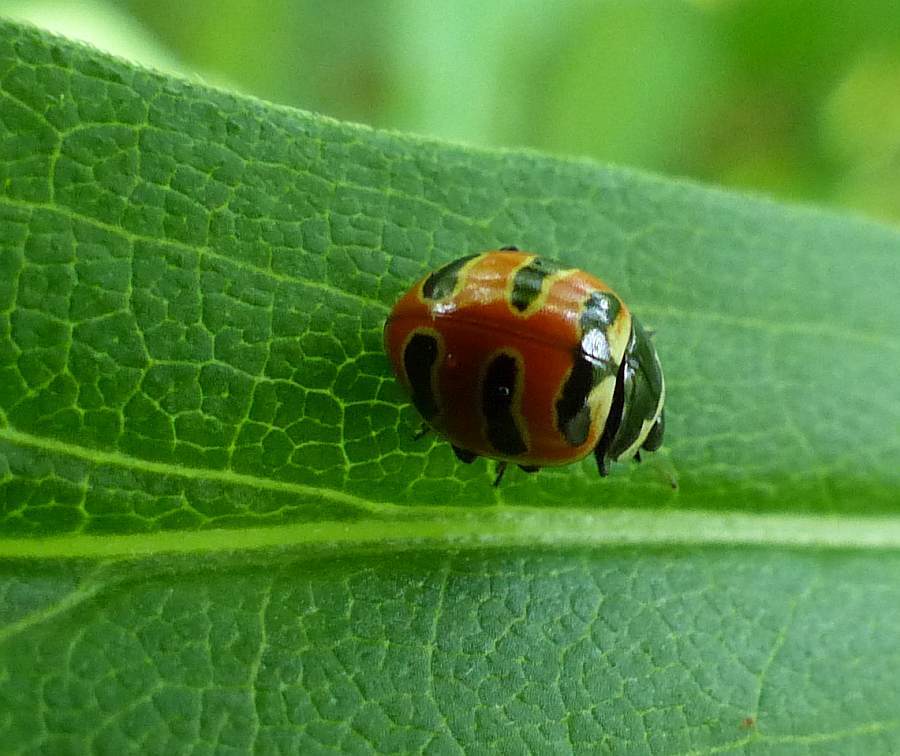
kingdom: Animalia
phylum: Arthropoda
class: Insecta
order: Coleoptera
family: Coccinellidae
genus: Coccinella
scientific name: Coccinella trifasciata
